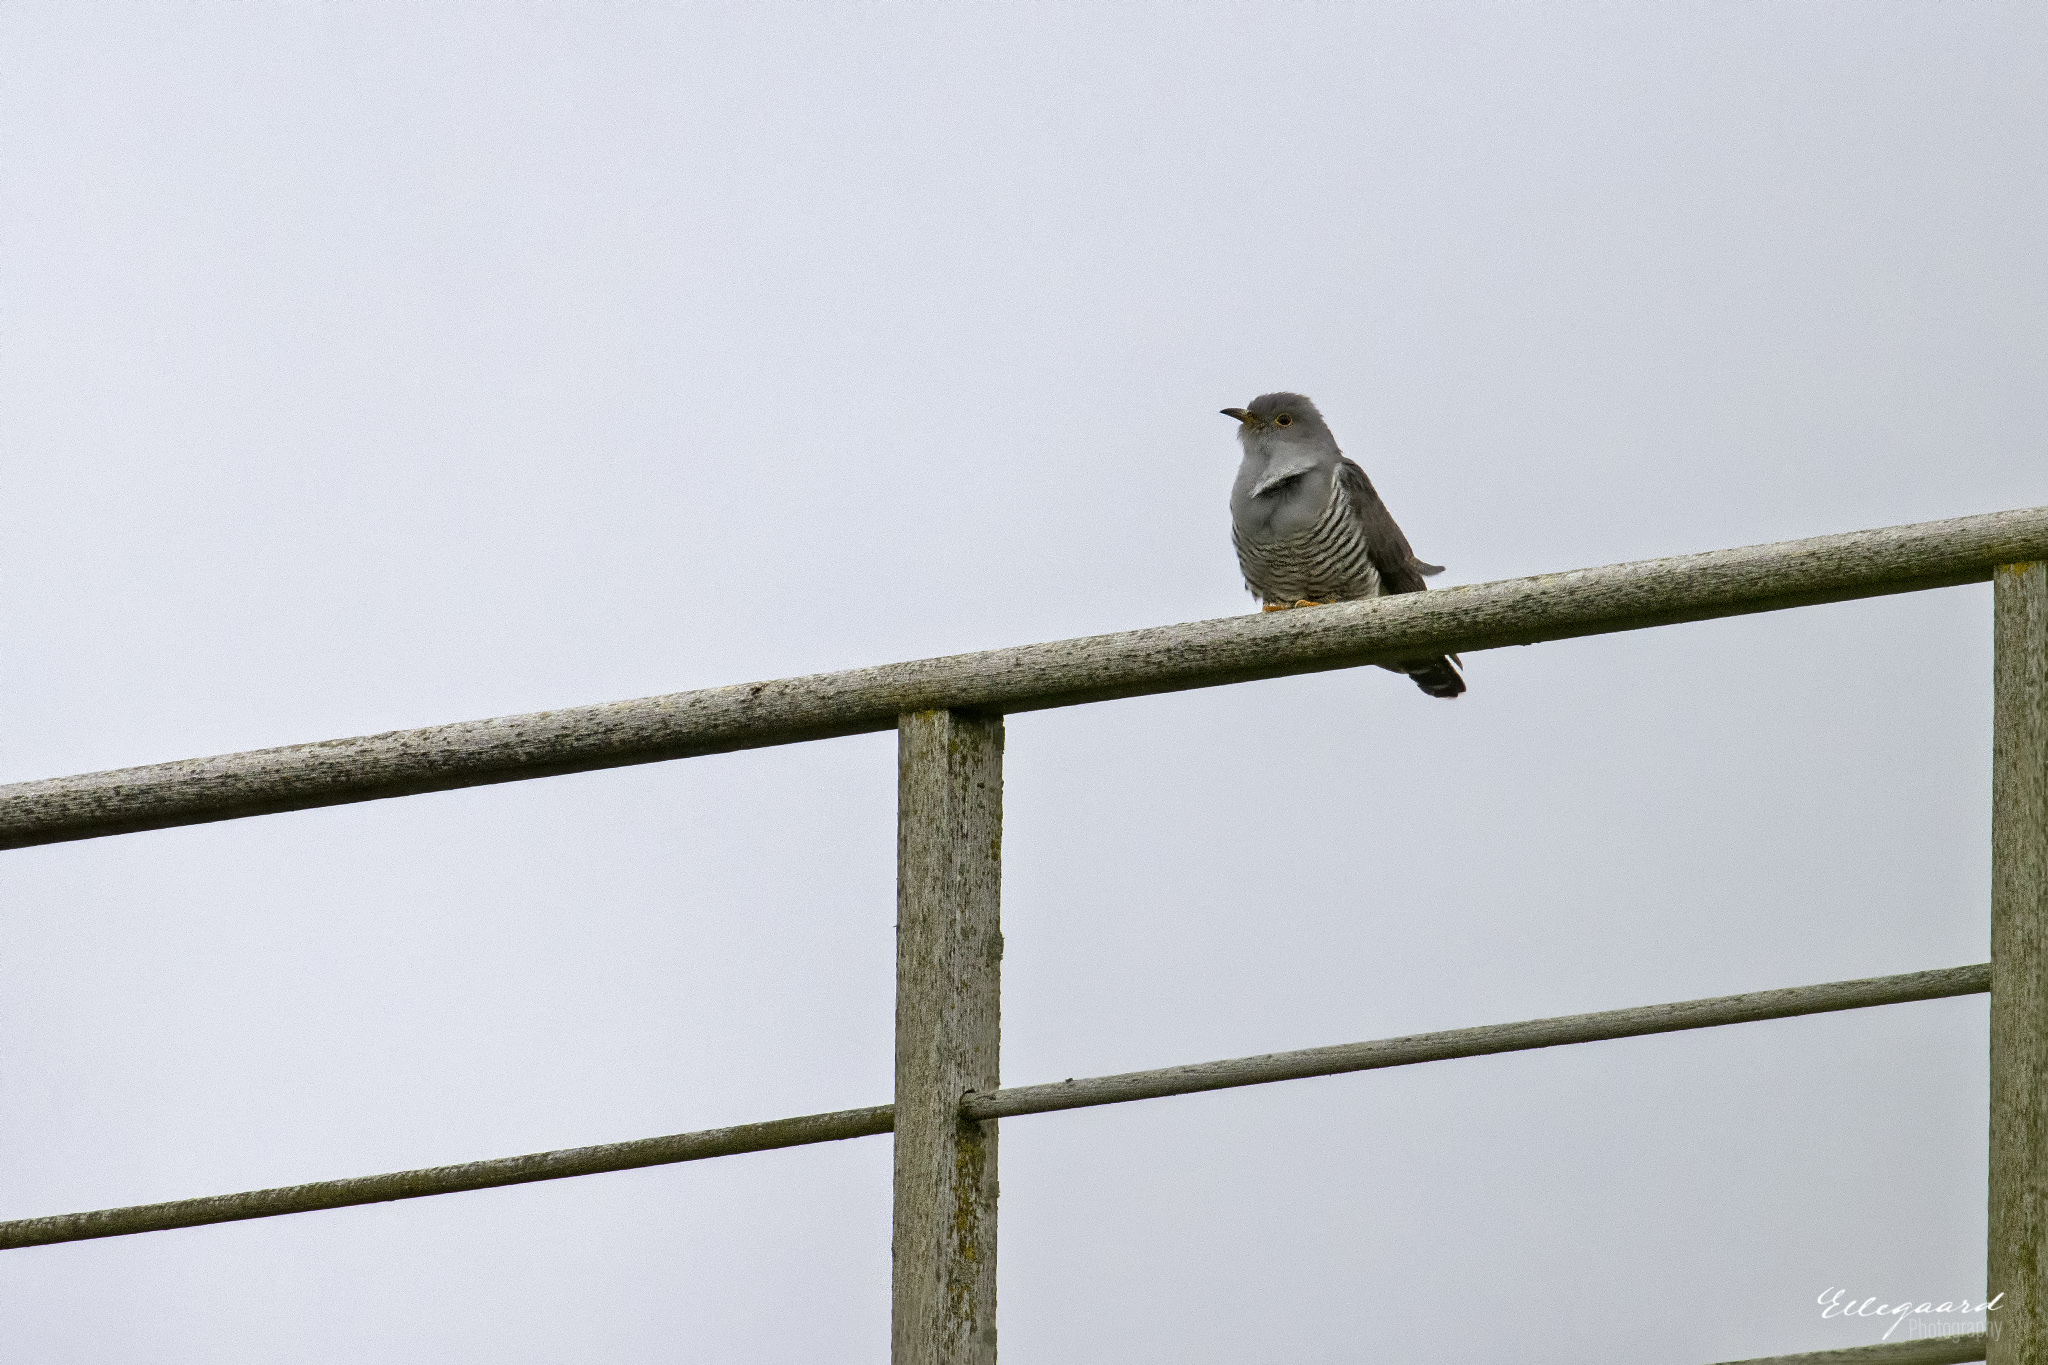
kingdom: Animalia
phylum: Chordata
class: Aves
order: Cuculiformes
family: Cuculidae
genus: Cuculus
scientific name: Cuculus canorus
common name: Common cuckoo
